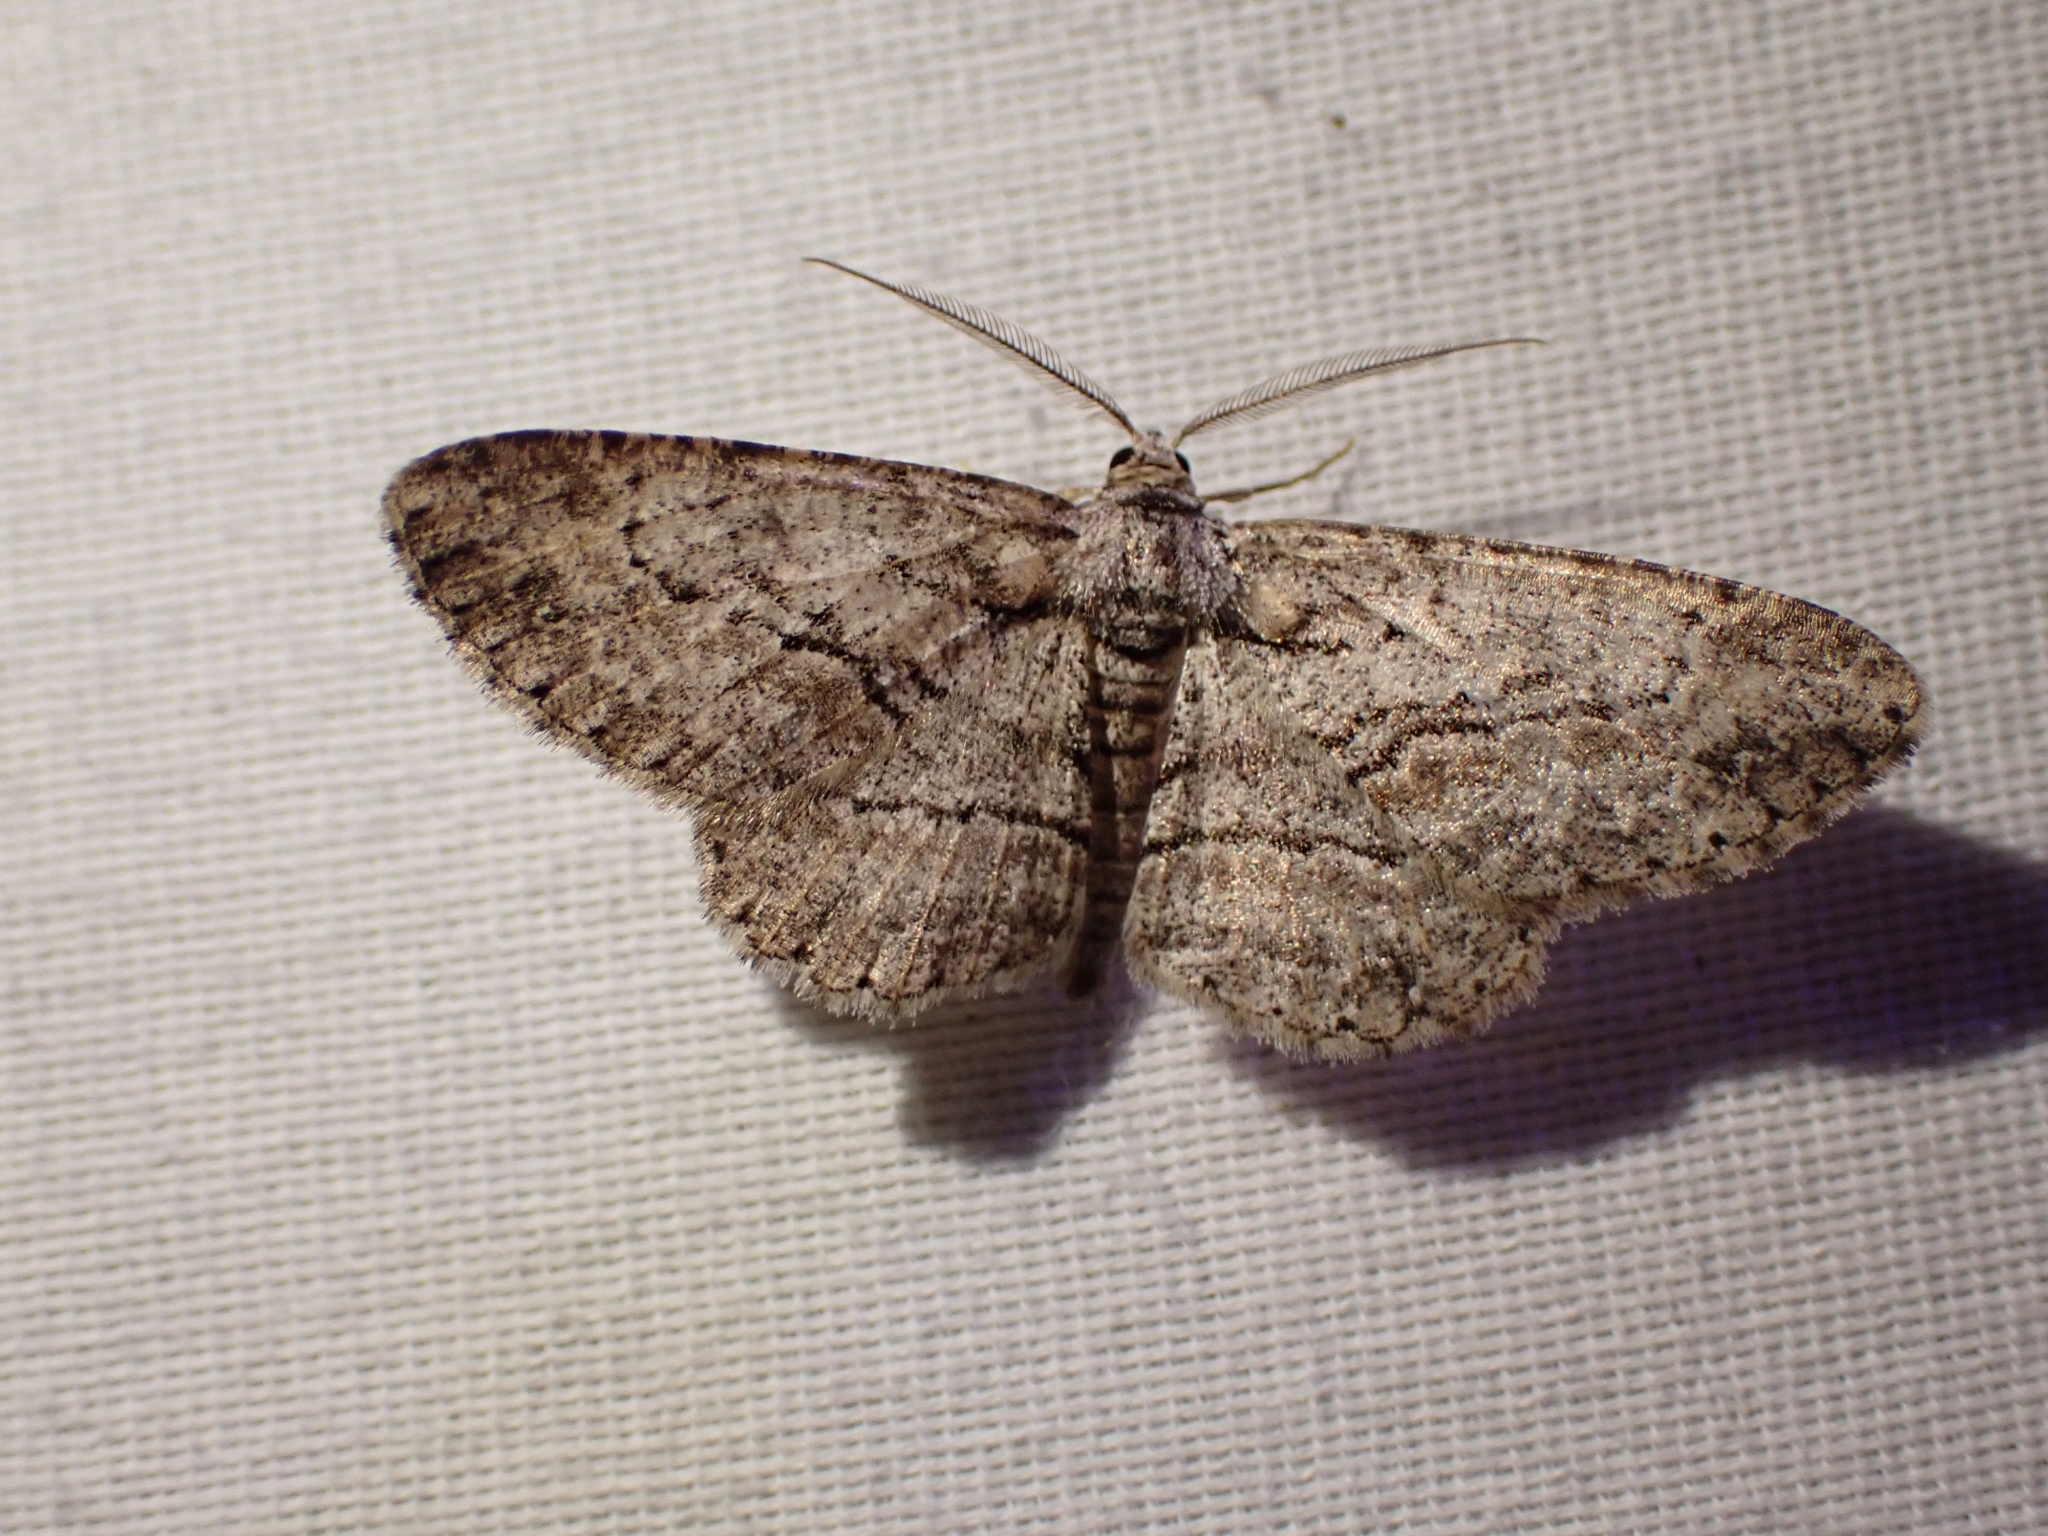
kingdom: Animalia
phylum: Arthropoda
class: Insecta
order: Lepidoptera
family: Geometridae
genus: Anavitrinella
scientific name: Anavitrinella pampinaria
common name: Common gray
